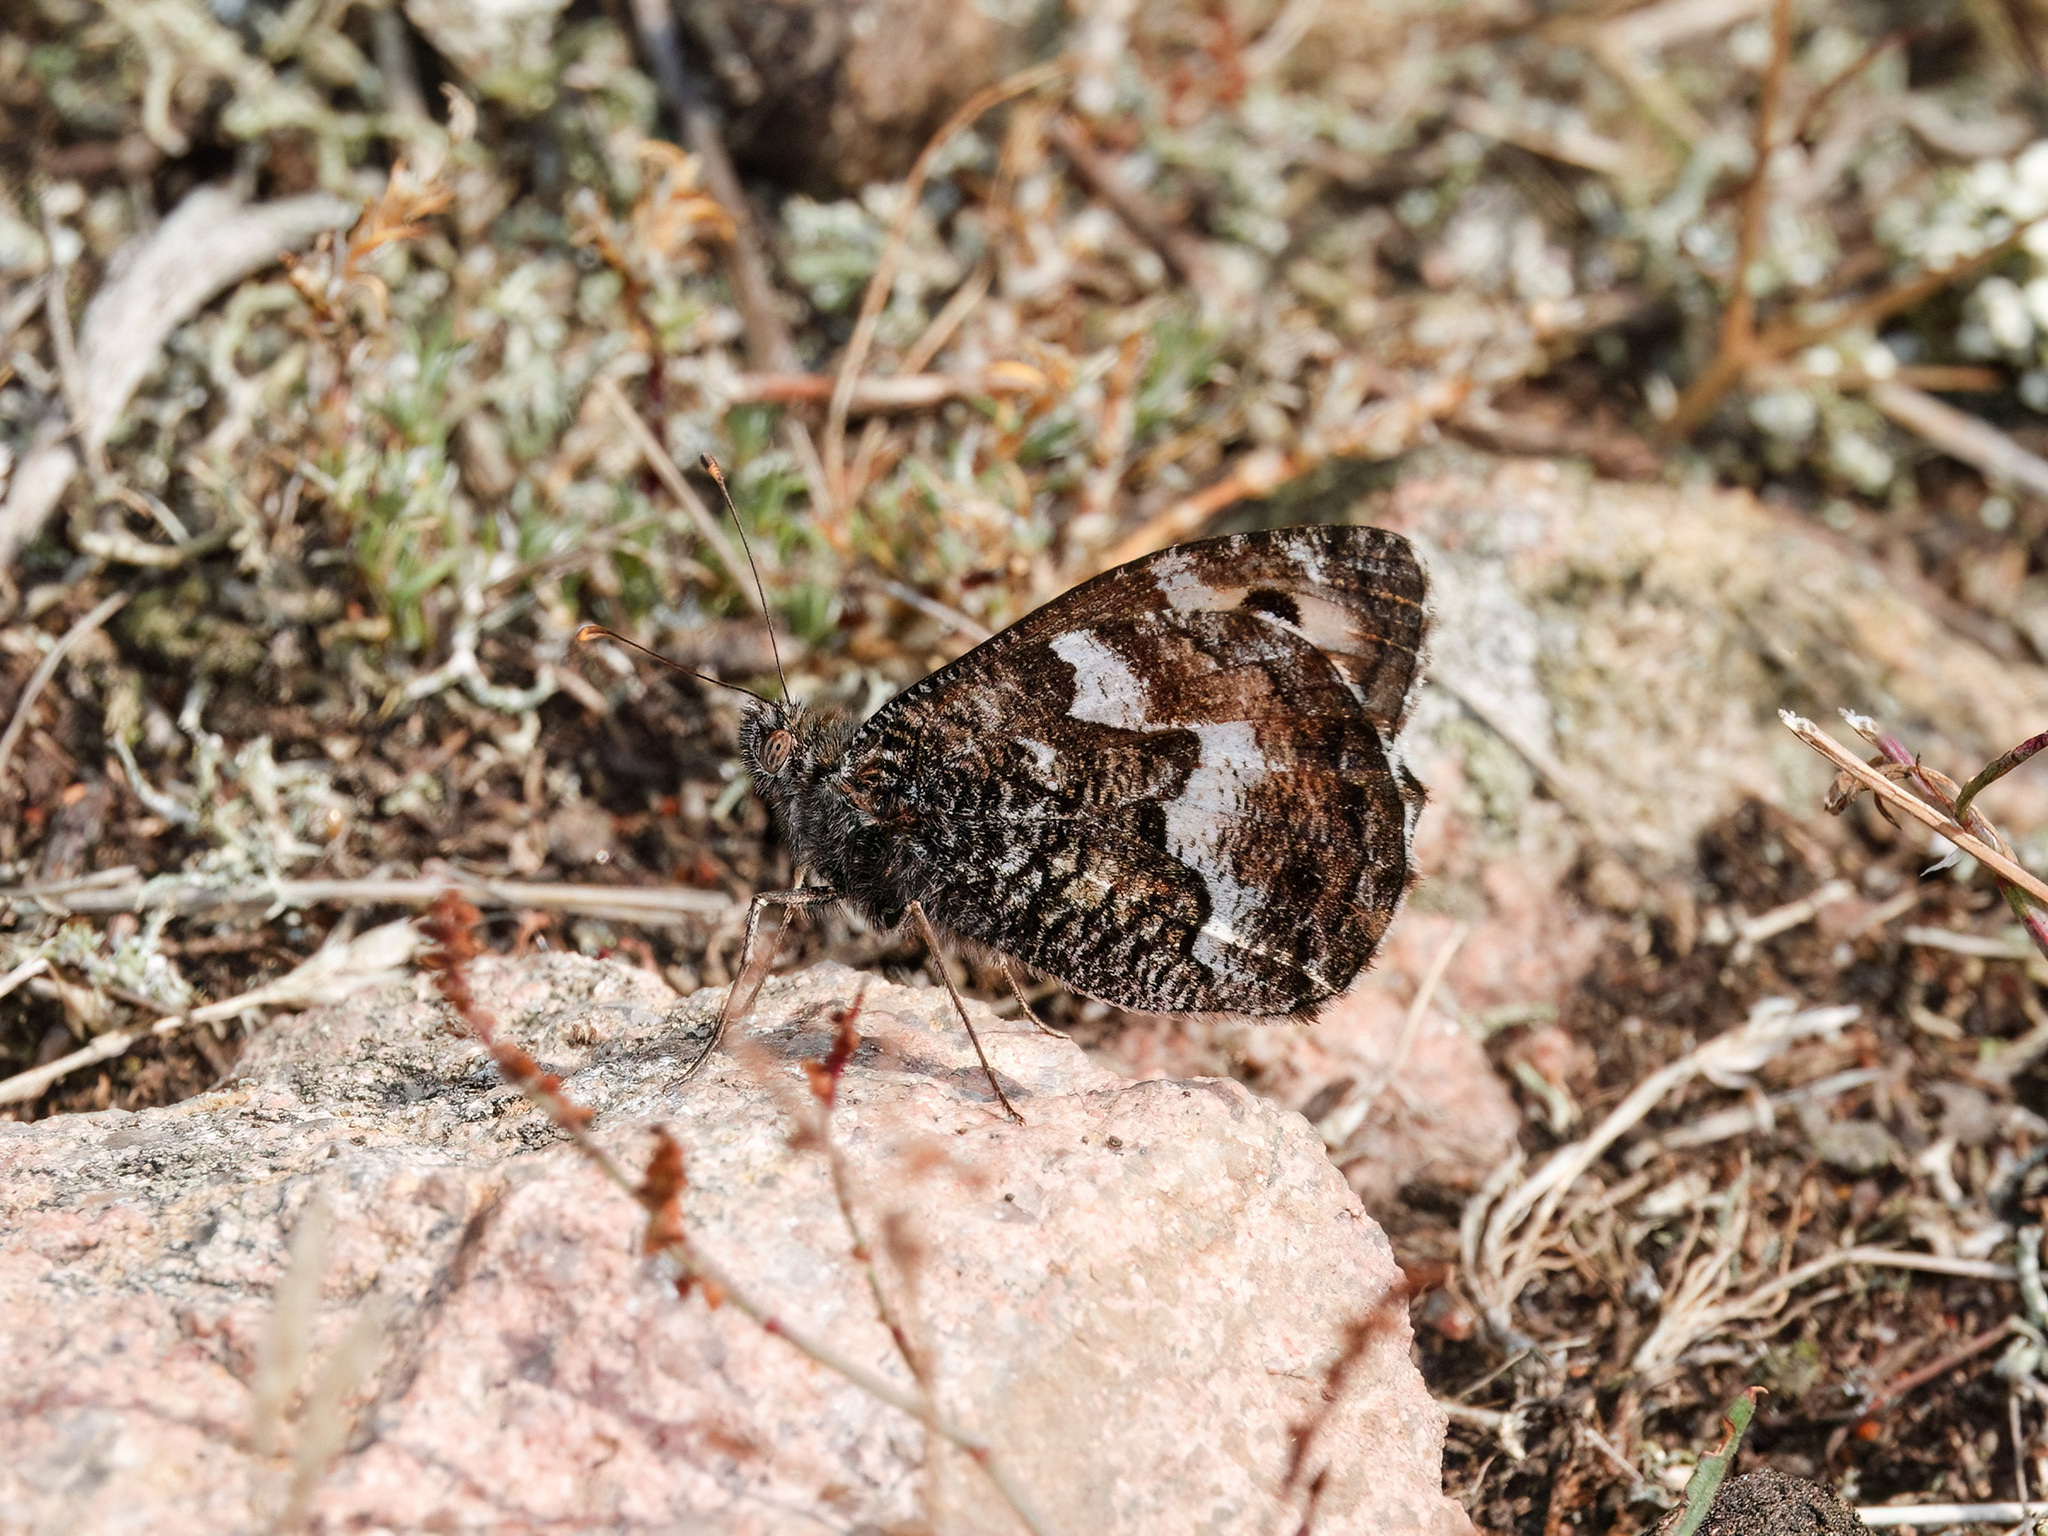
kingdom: Animalia
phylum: Arthropoda
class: Insecta
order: Lepidoptera
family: Nymphalidae
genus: Hipparchia
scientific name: Hipparchia semele
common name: Grayling
